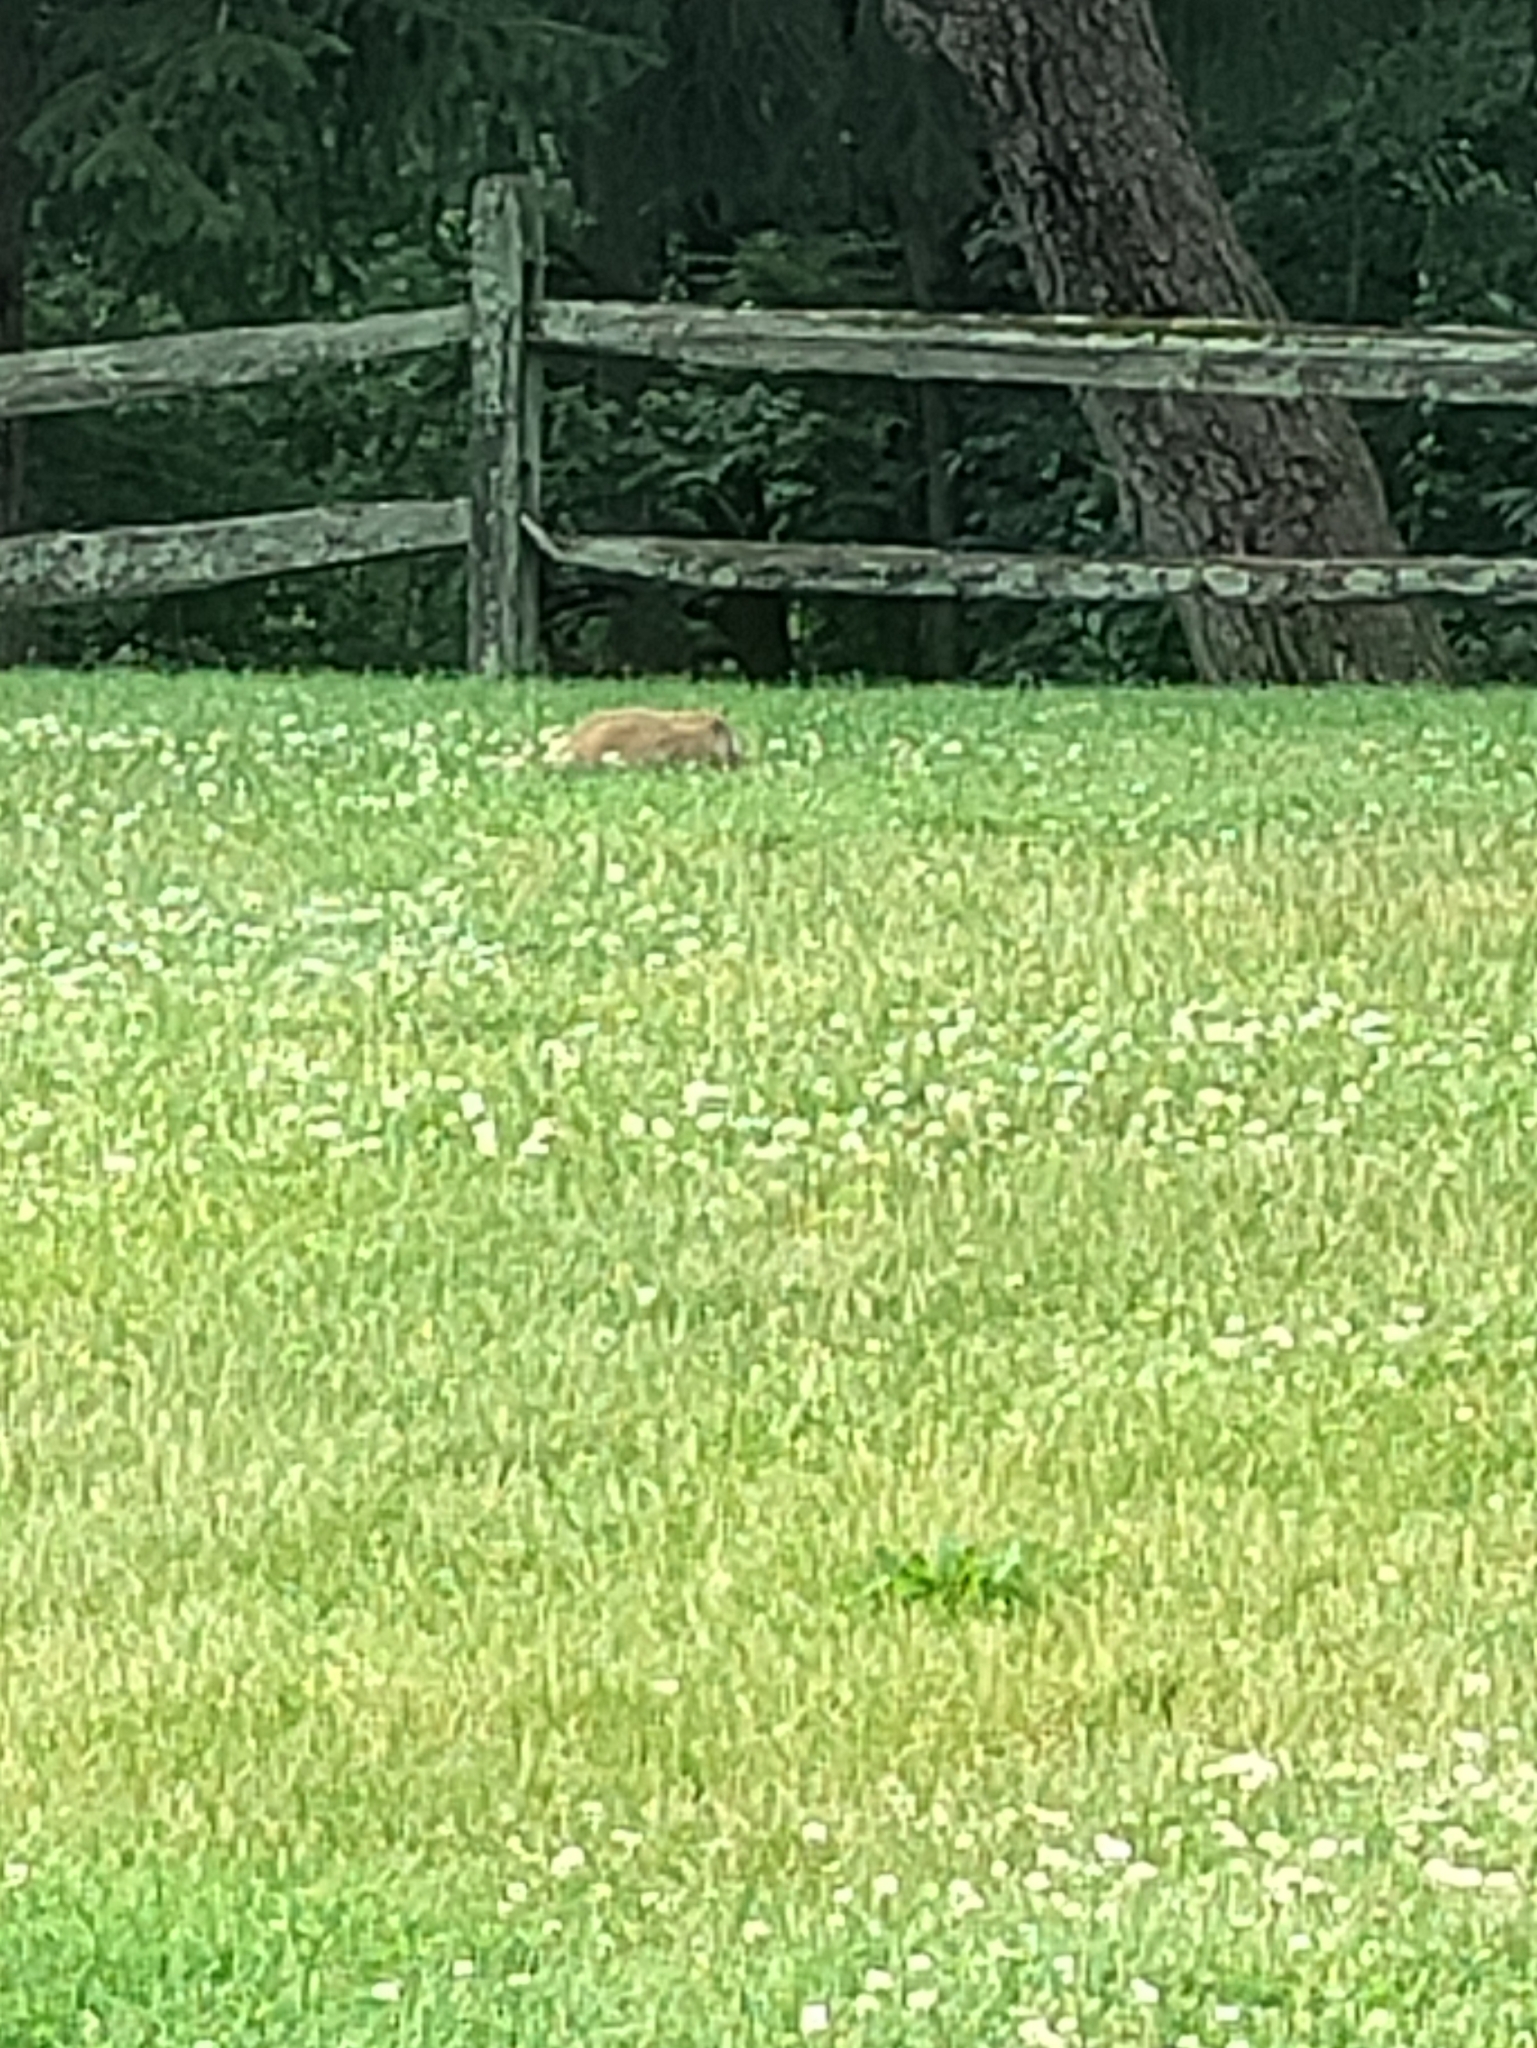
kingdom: Animalia
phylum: Chordata
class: Mammalia
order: Rodentia
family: Sciuridae
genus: Marmota
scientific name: Marmota monax
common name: Groundhog
